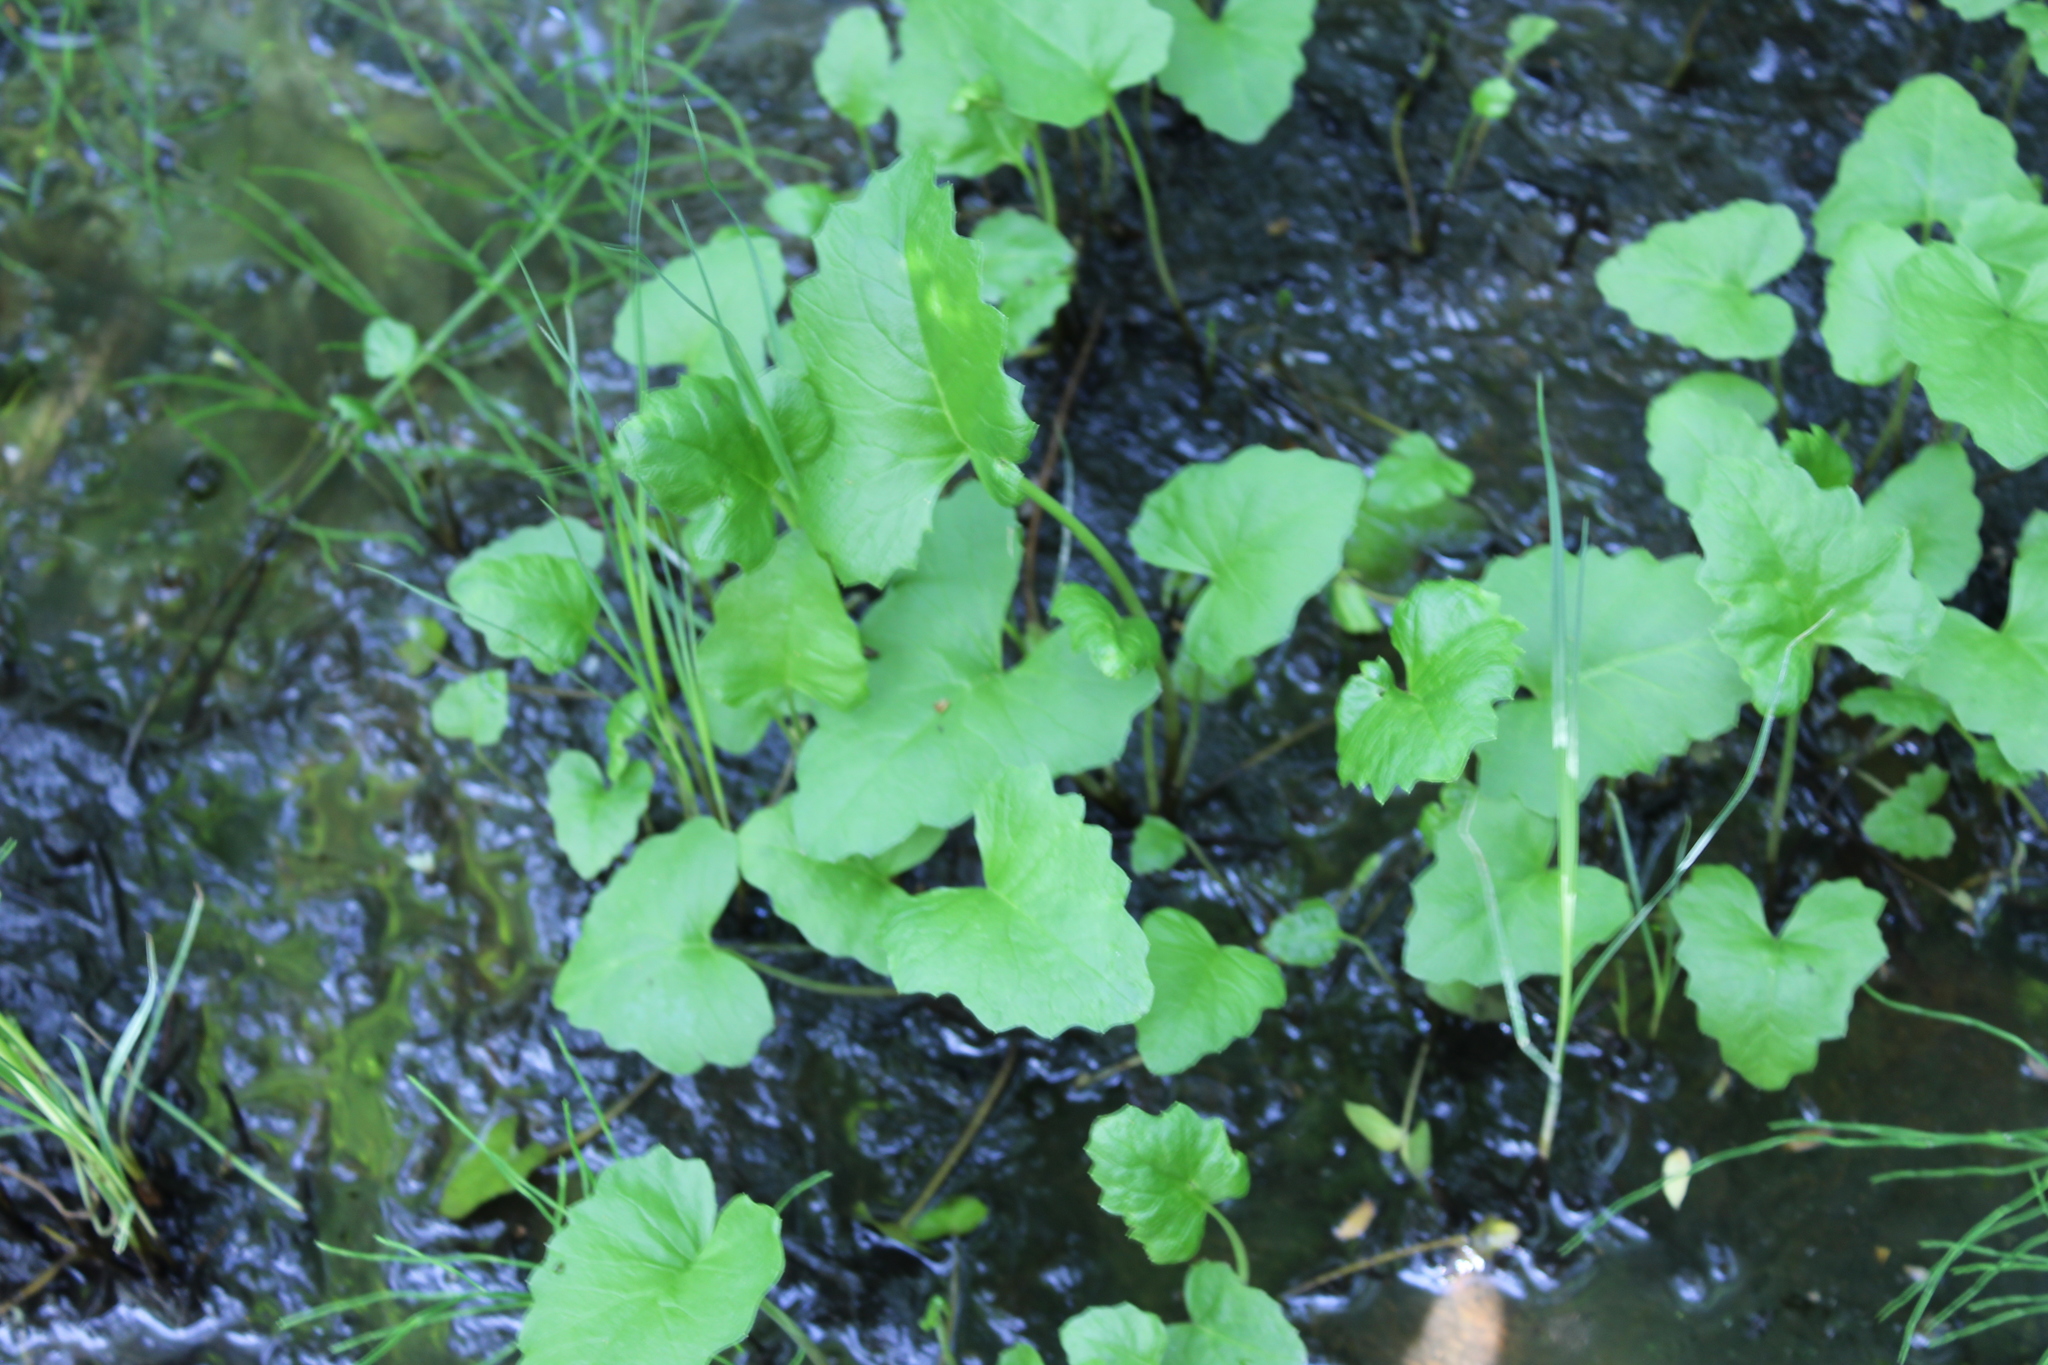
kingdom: Plantae
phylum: Tracheophyta
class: Magnoliopsida
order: Asterales
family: Asteraceae
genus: Petasites
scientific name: Petasites frigidus
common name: Arctic butterbur
